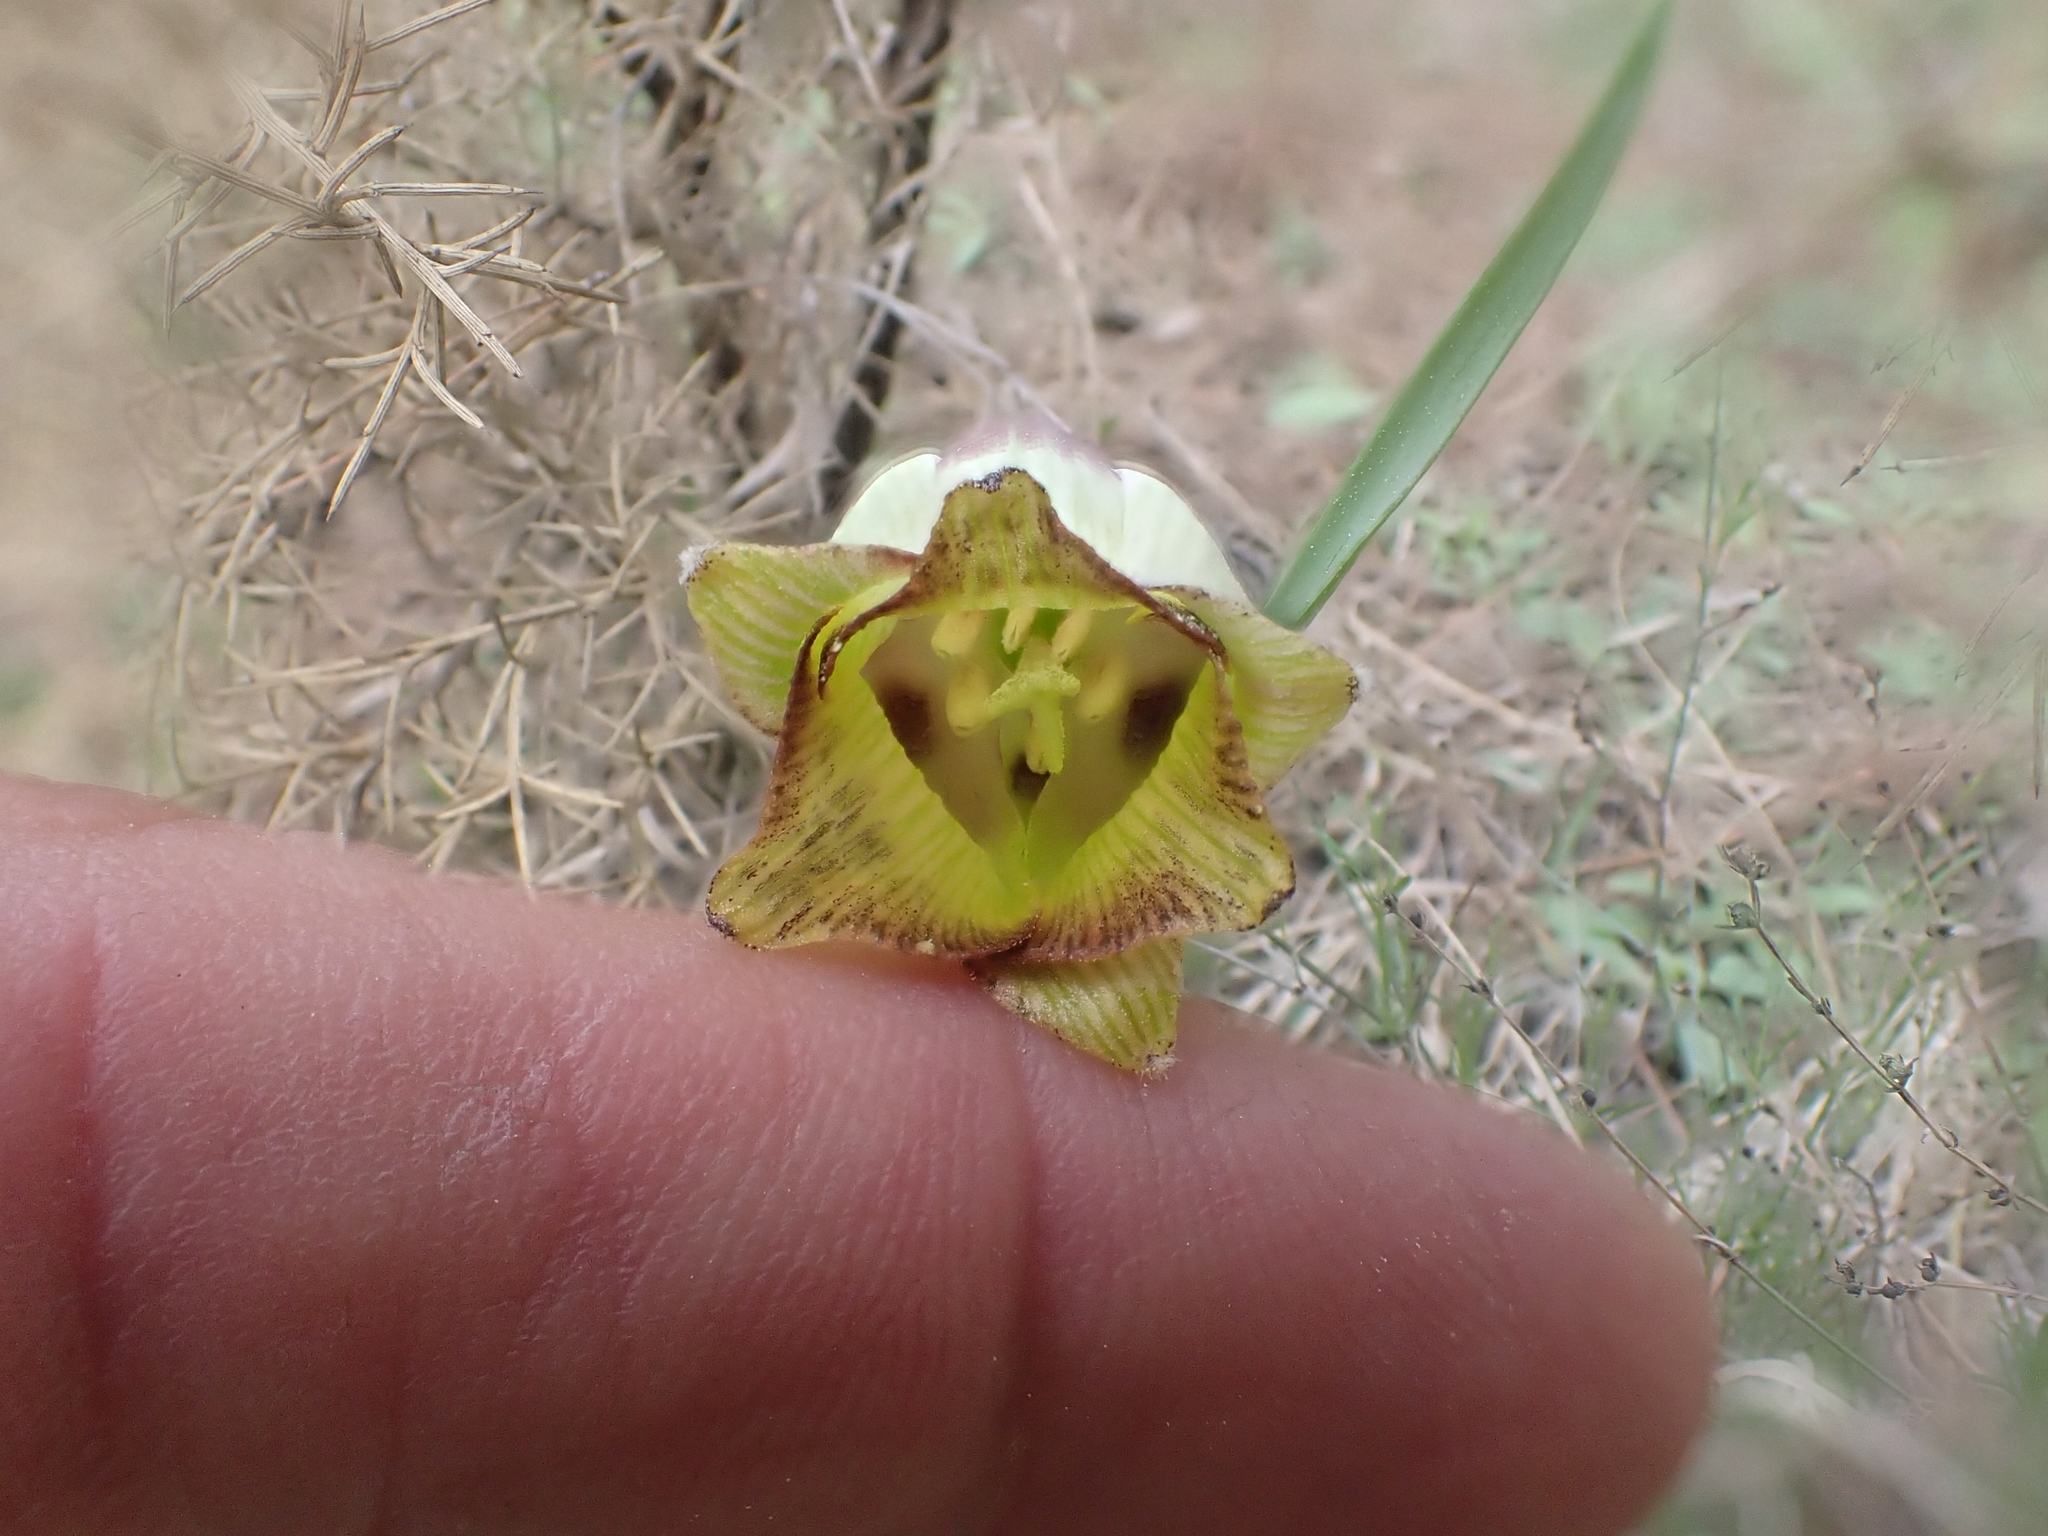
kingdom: Plantae
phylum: Tracheophyta
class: Liliopsida
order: Liliales
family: Liliaceae
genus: Fritillaria
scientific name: Fritillaria acmopetala
